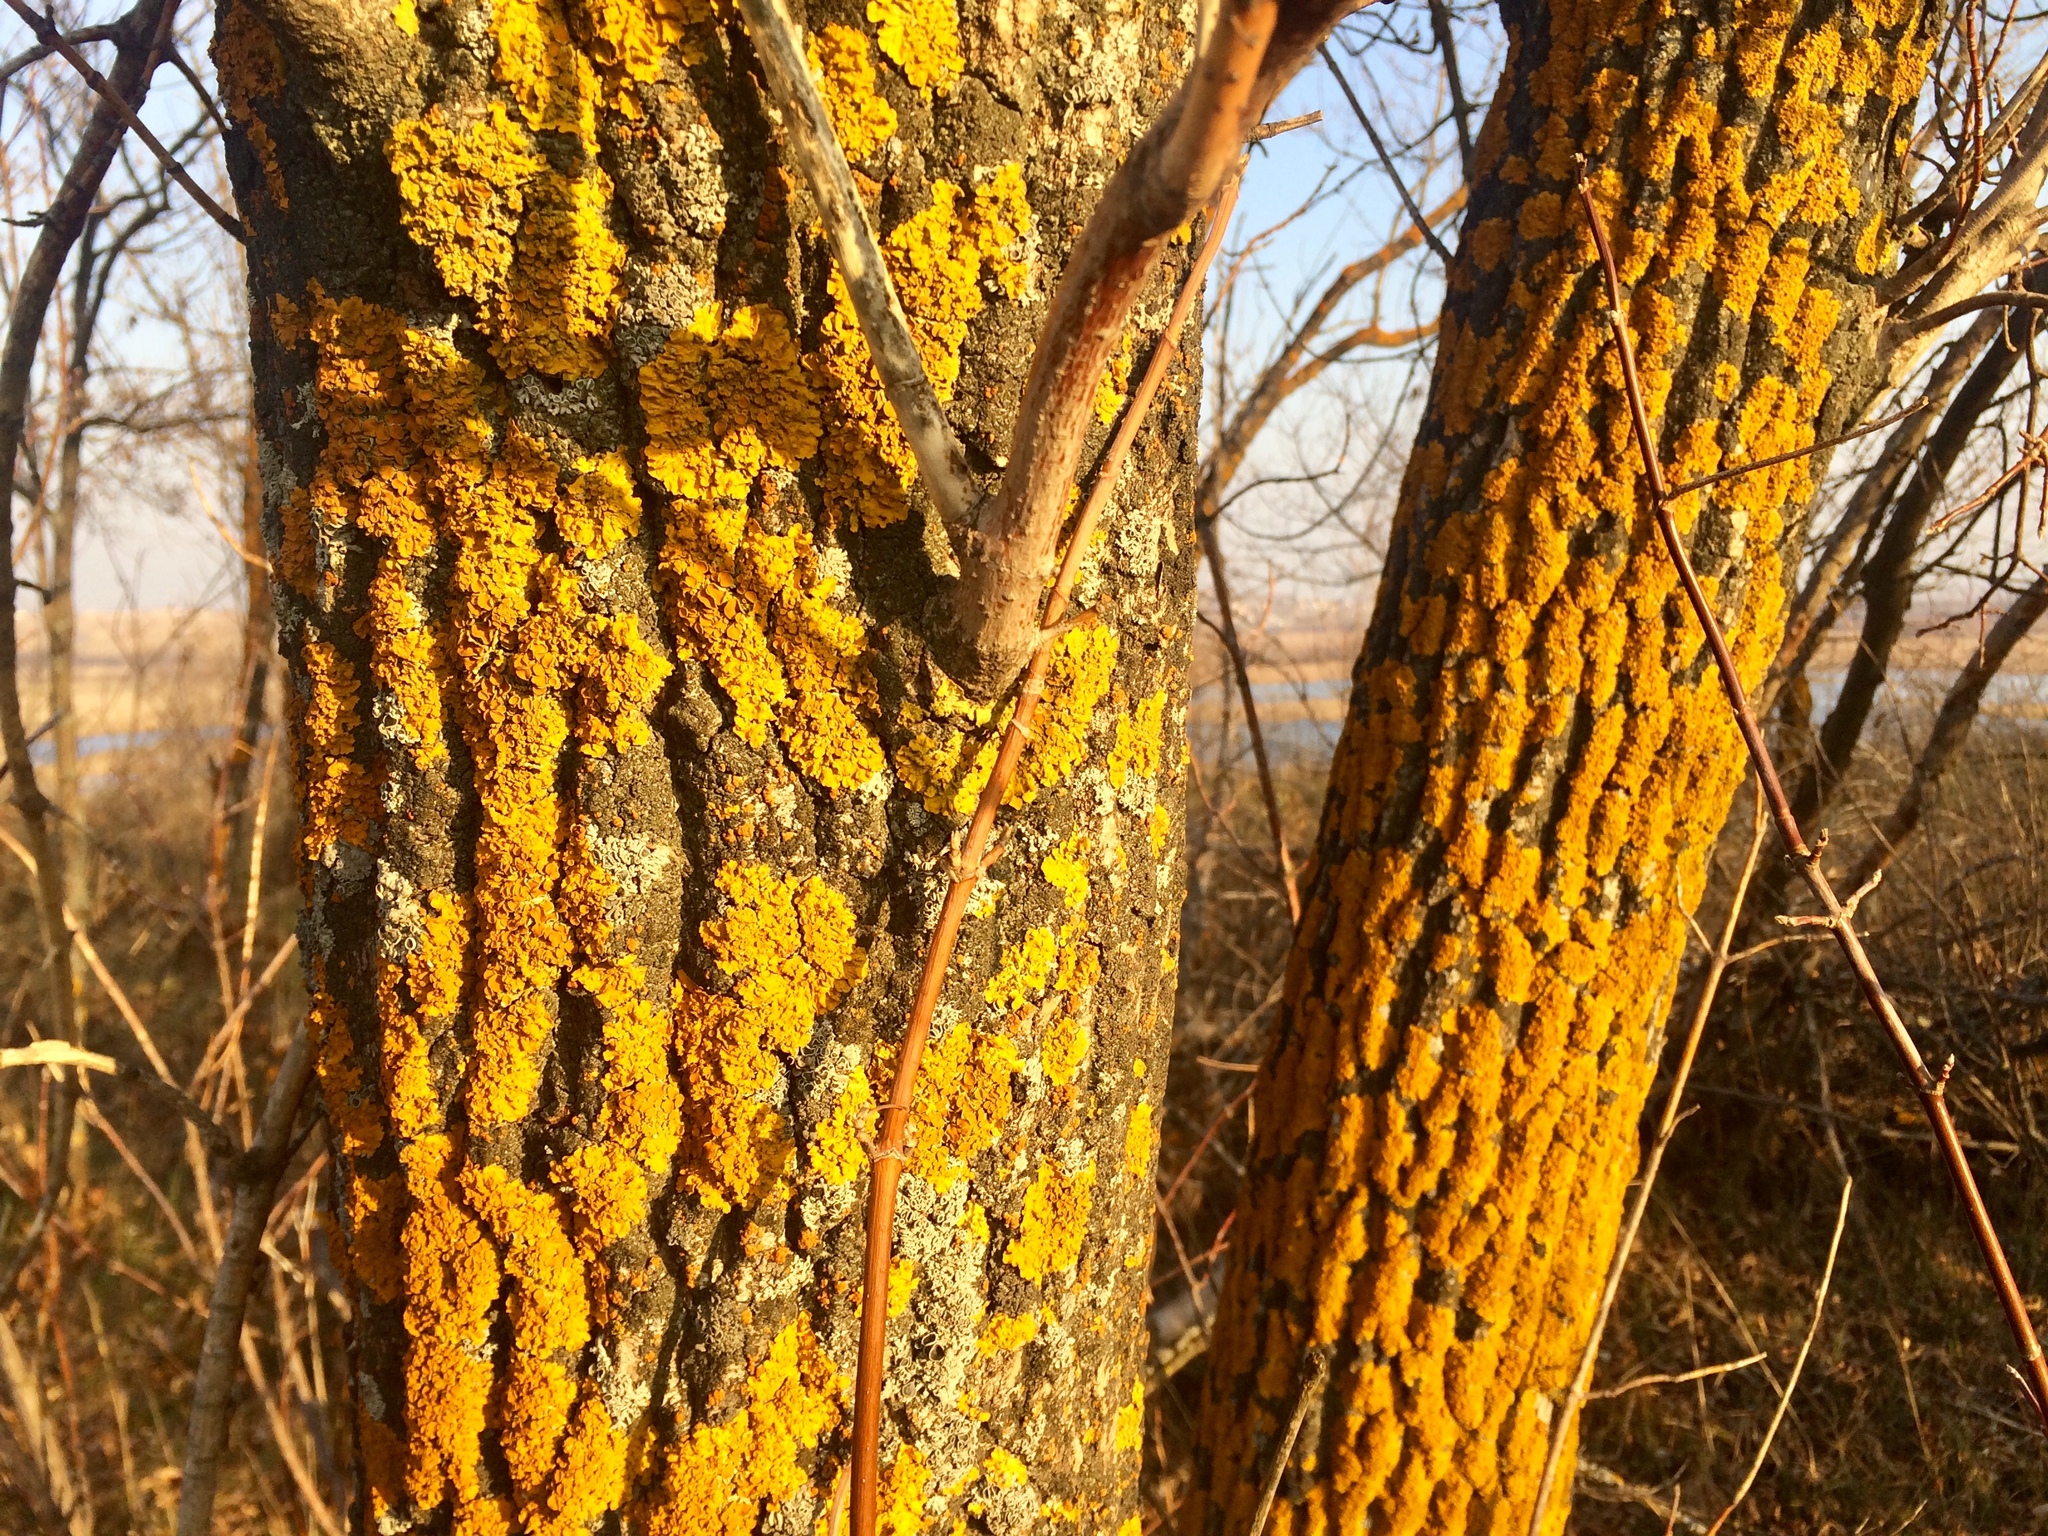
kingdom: Fungi
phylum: Ascomycota
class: Lecanoromycetes
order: Teloschistales
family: Teloschistaceae
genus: Xanthoria
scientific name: Xanthoria parietina
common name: Common orange lichen
